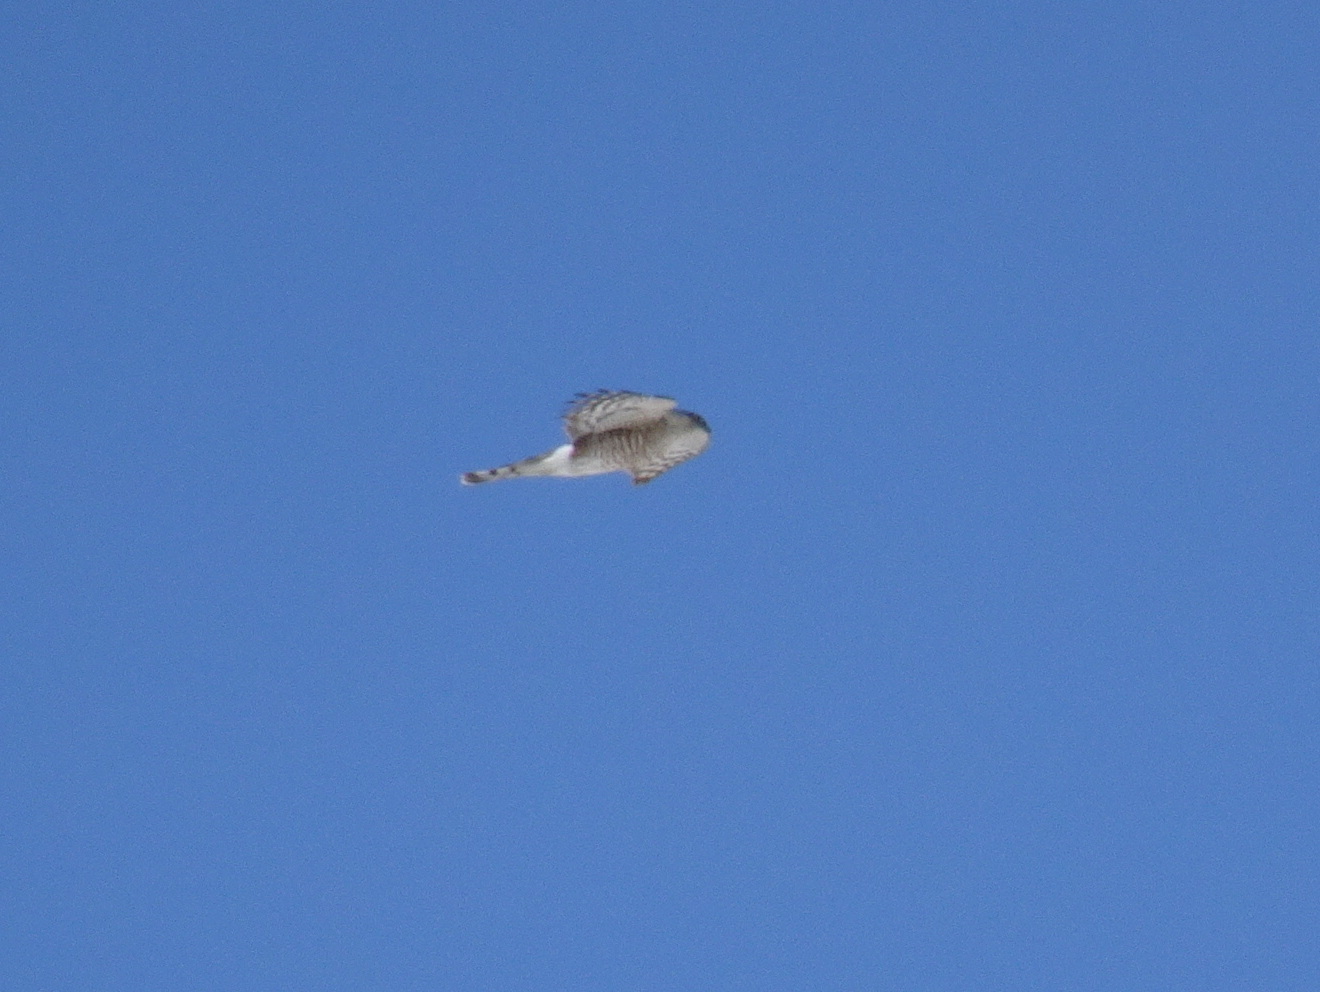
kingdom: Animalia
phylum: Chordata
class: Aves
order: Accipitriformes
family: Accipitridae
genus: Accipiter
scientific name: Accipiter striatus
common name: Sharp-shinned hawk
